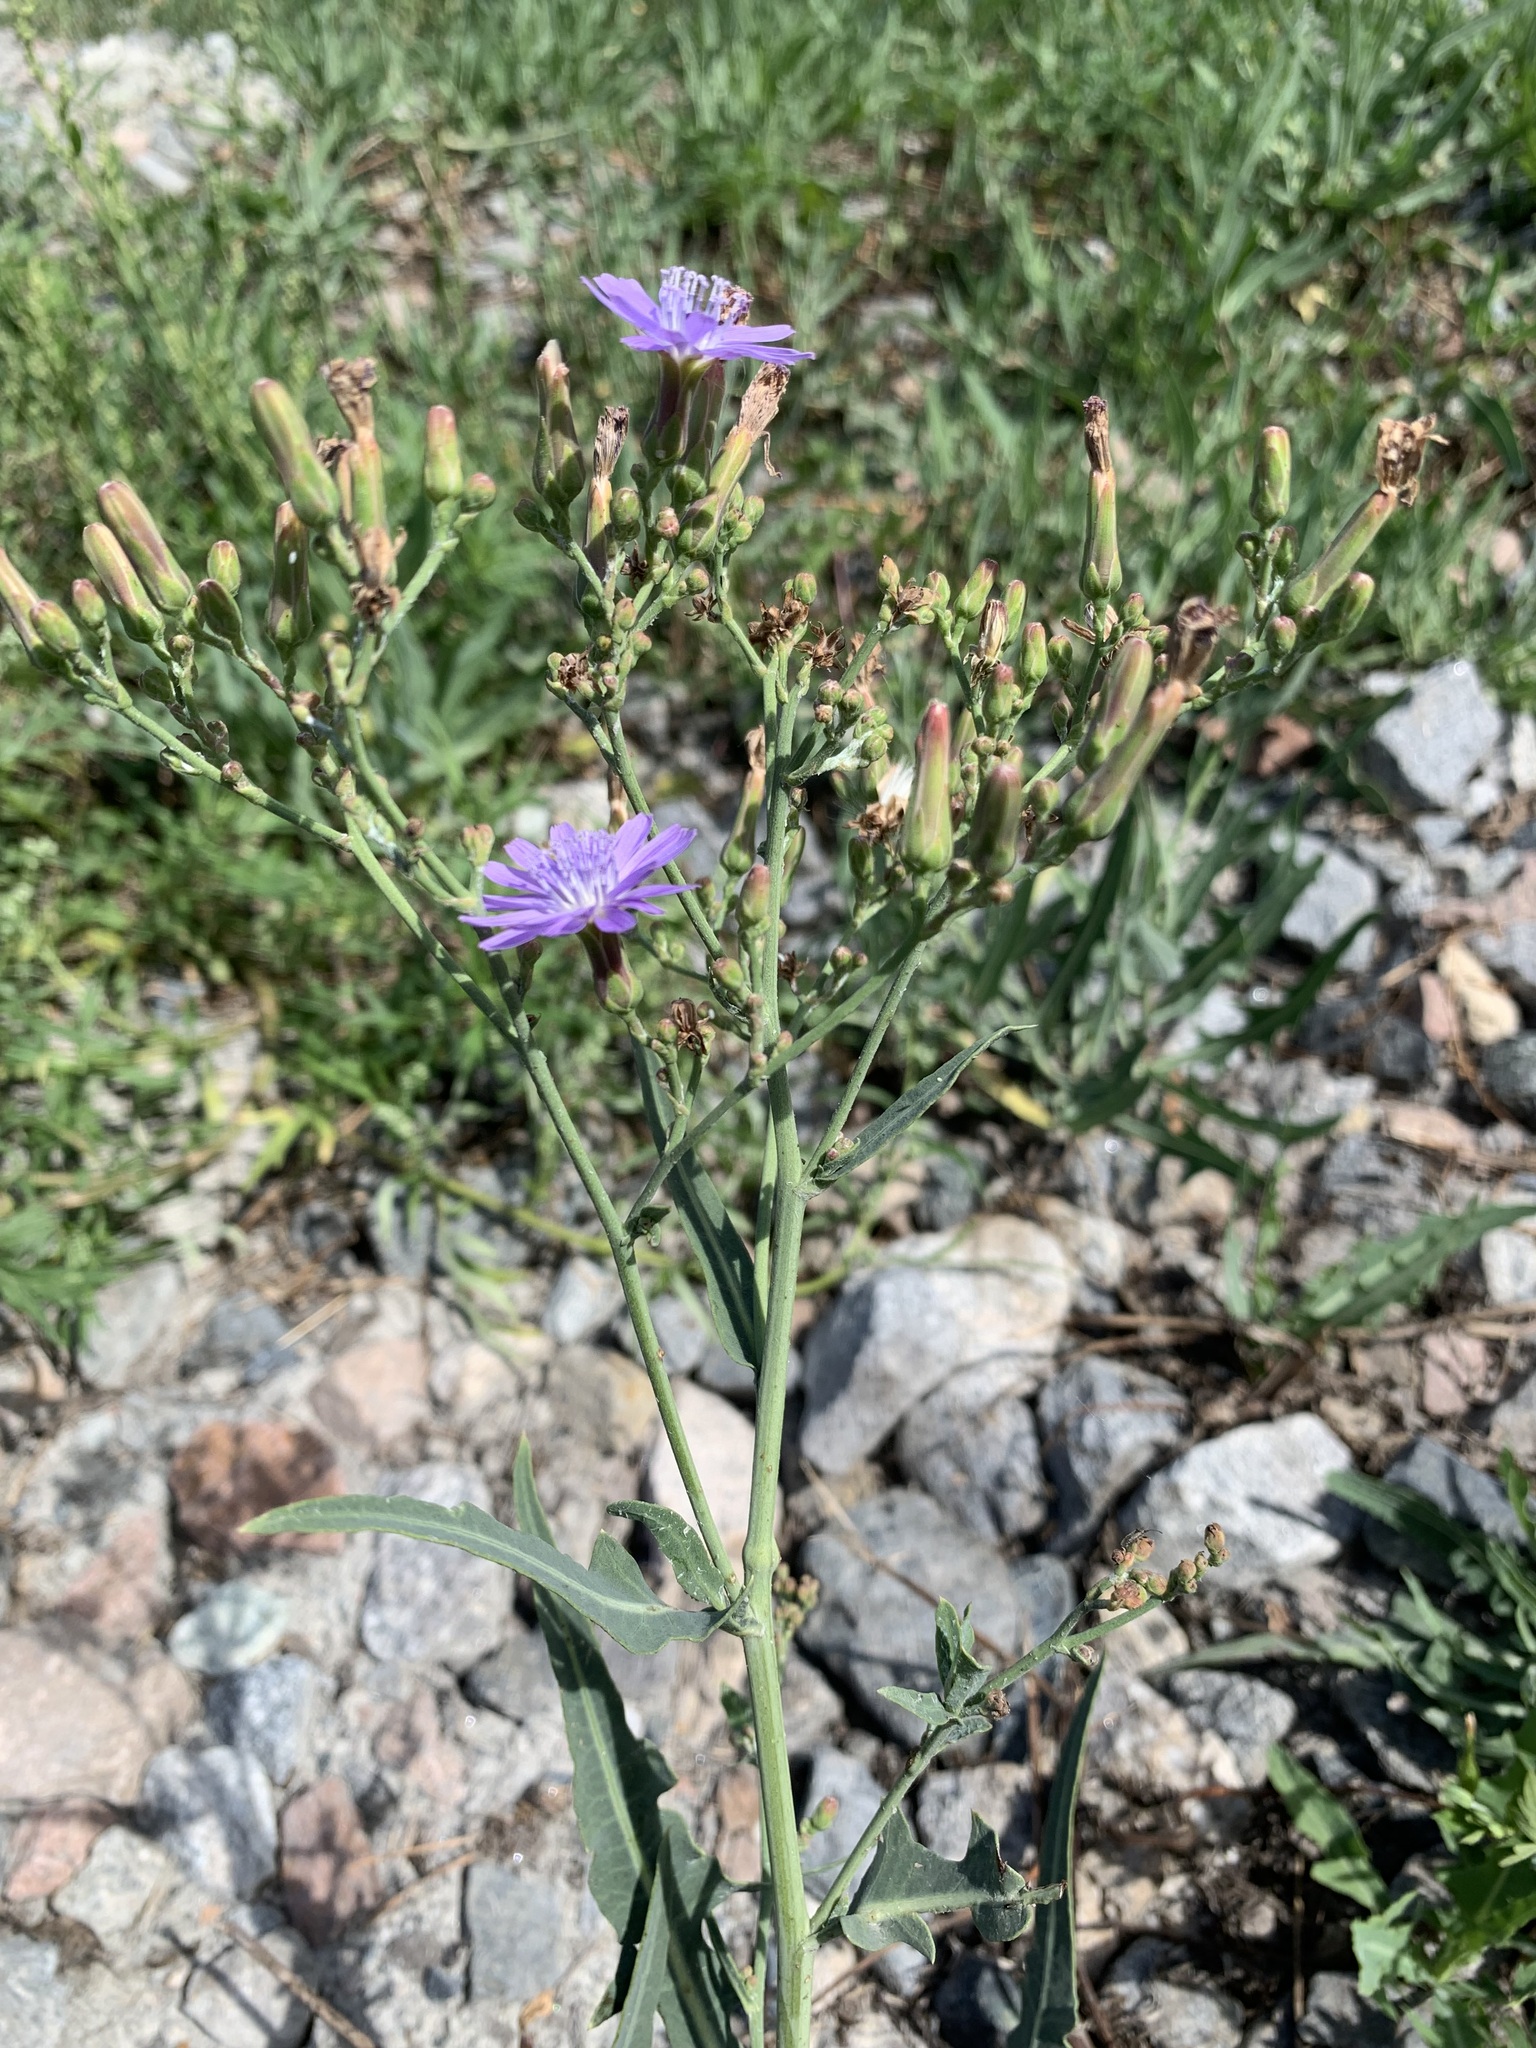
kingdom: Plantae
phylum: Tracheophyta
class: Magnoliopsida
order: Asterales
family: Asteraceae
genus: Lactuca
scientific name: Lactuca tatarica
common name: Blue lettuce
